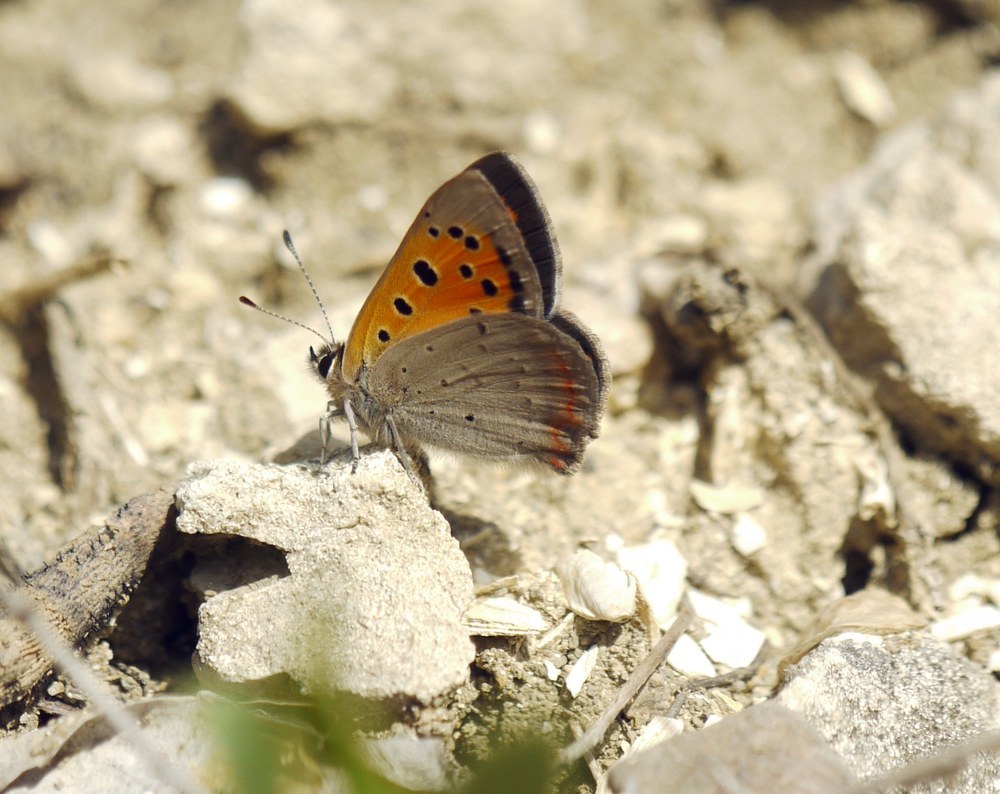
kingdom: Animalia
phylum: Arthropoda
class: Insecta
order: Lepidoptera
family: Lycaenidae
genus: Lycaena
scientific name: Lycaena phlaeas
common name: Small copper
